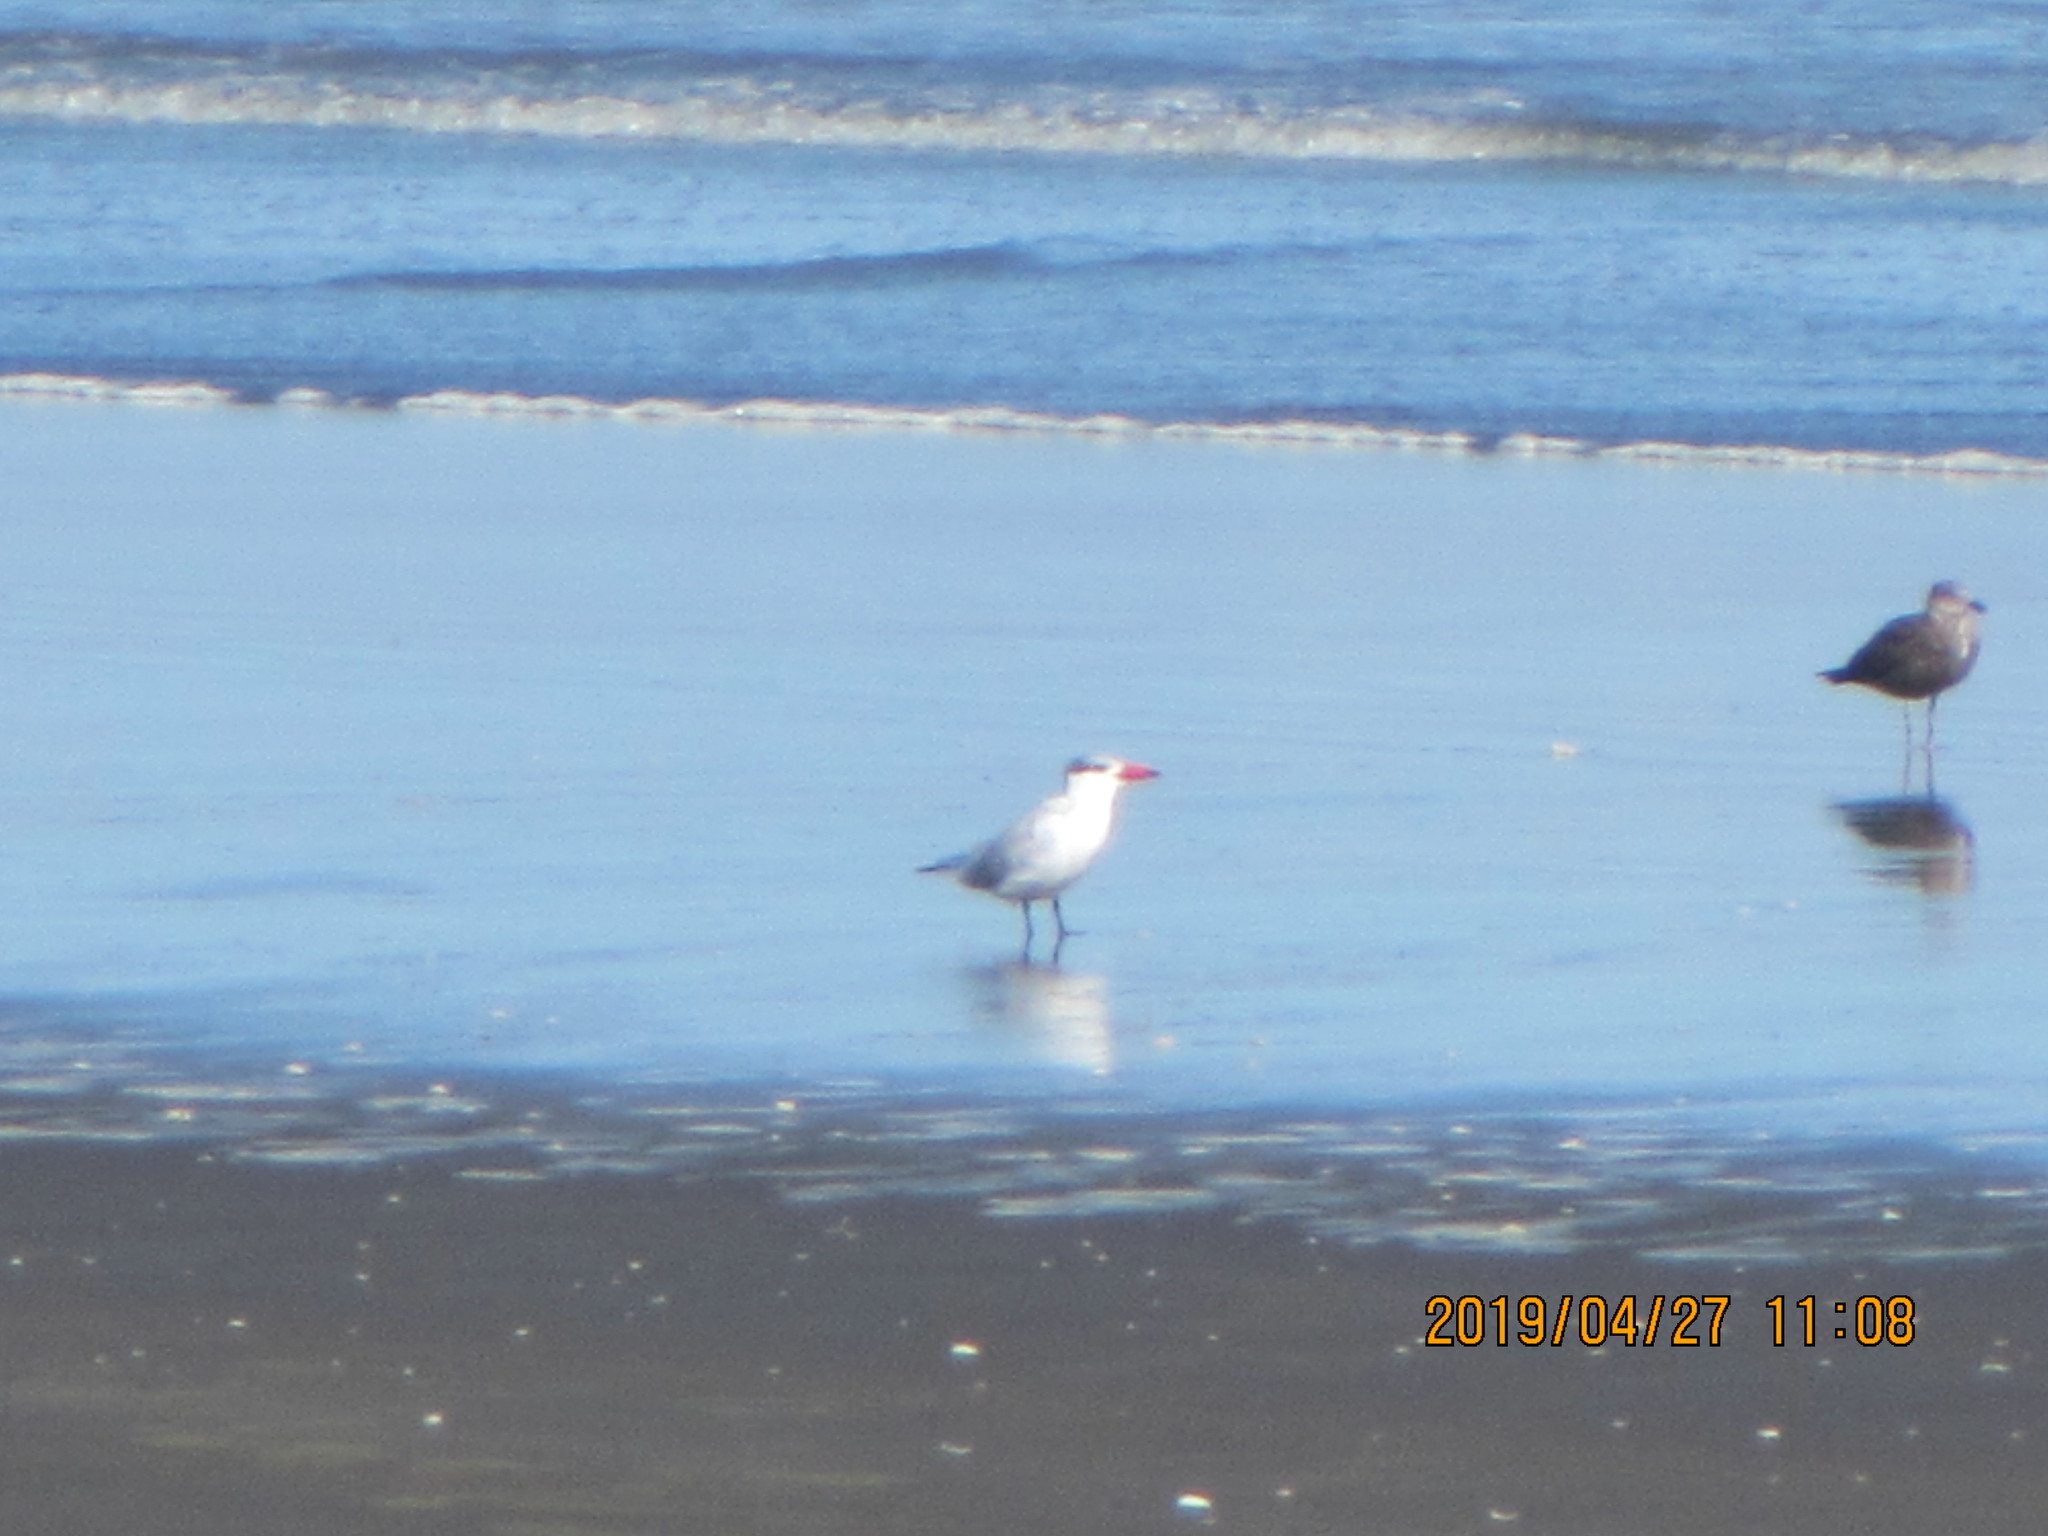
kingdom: Animalia
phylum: Chordata
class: Aves
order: Charadriiformes
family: Laridae
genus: Hydroprogne
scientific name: Hydroprogne caspia
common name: Caspian tern
